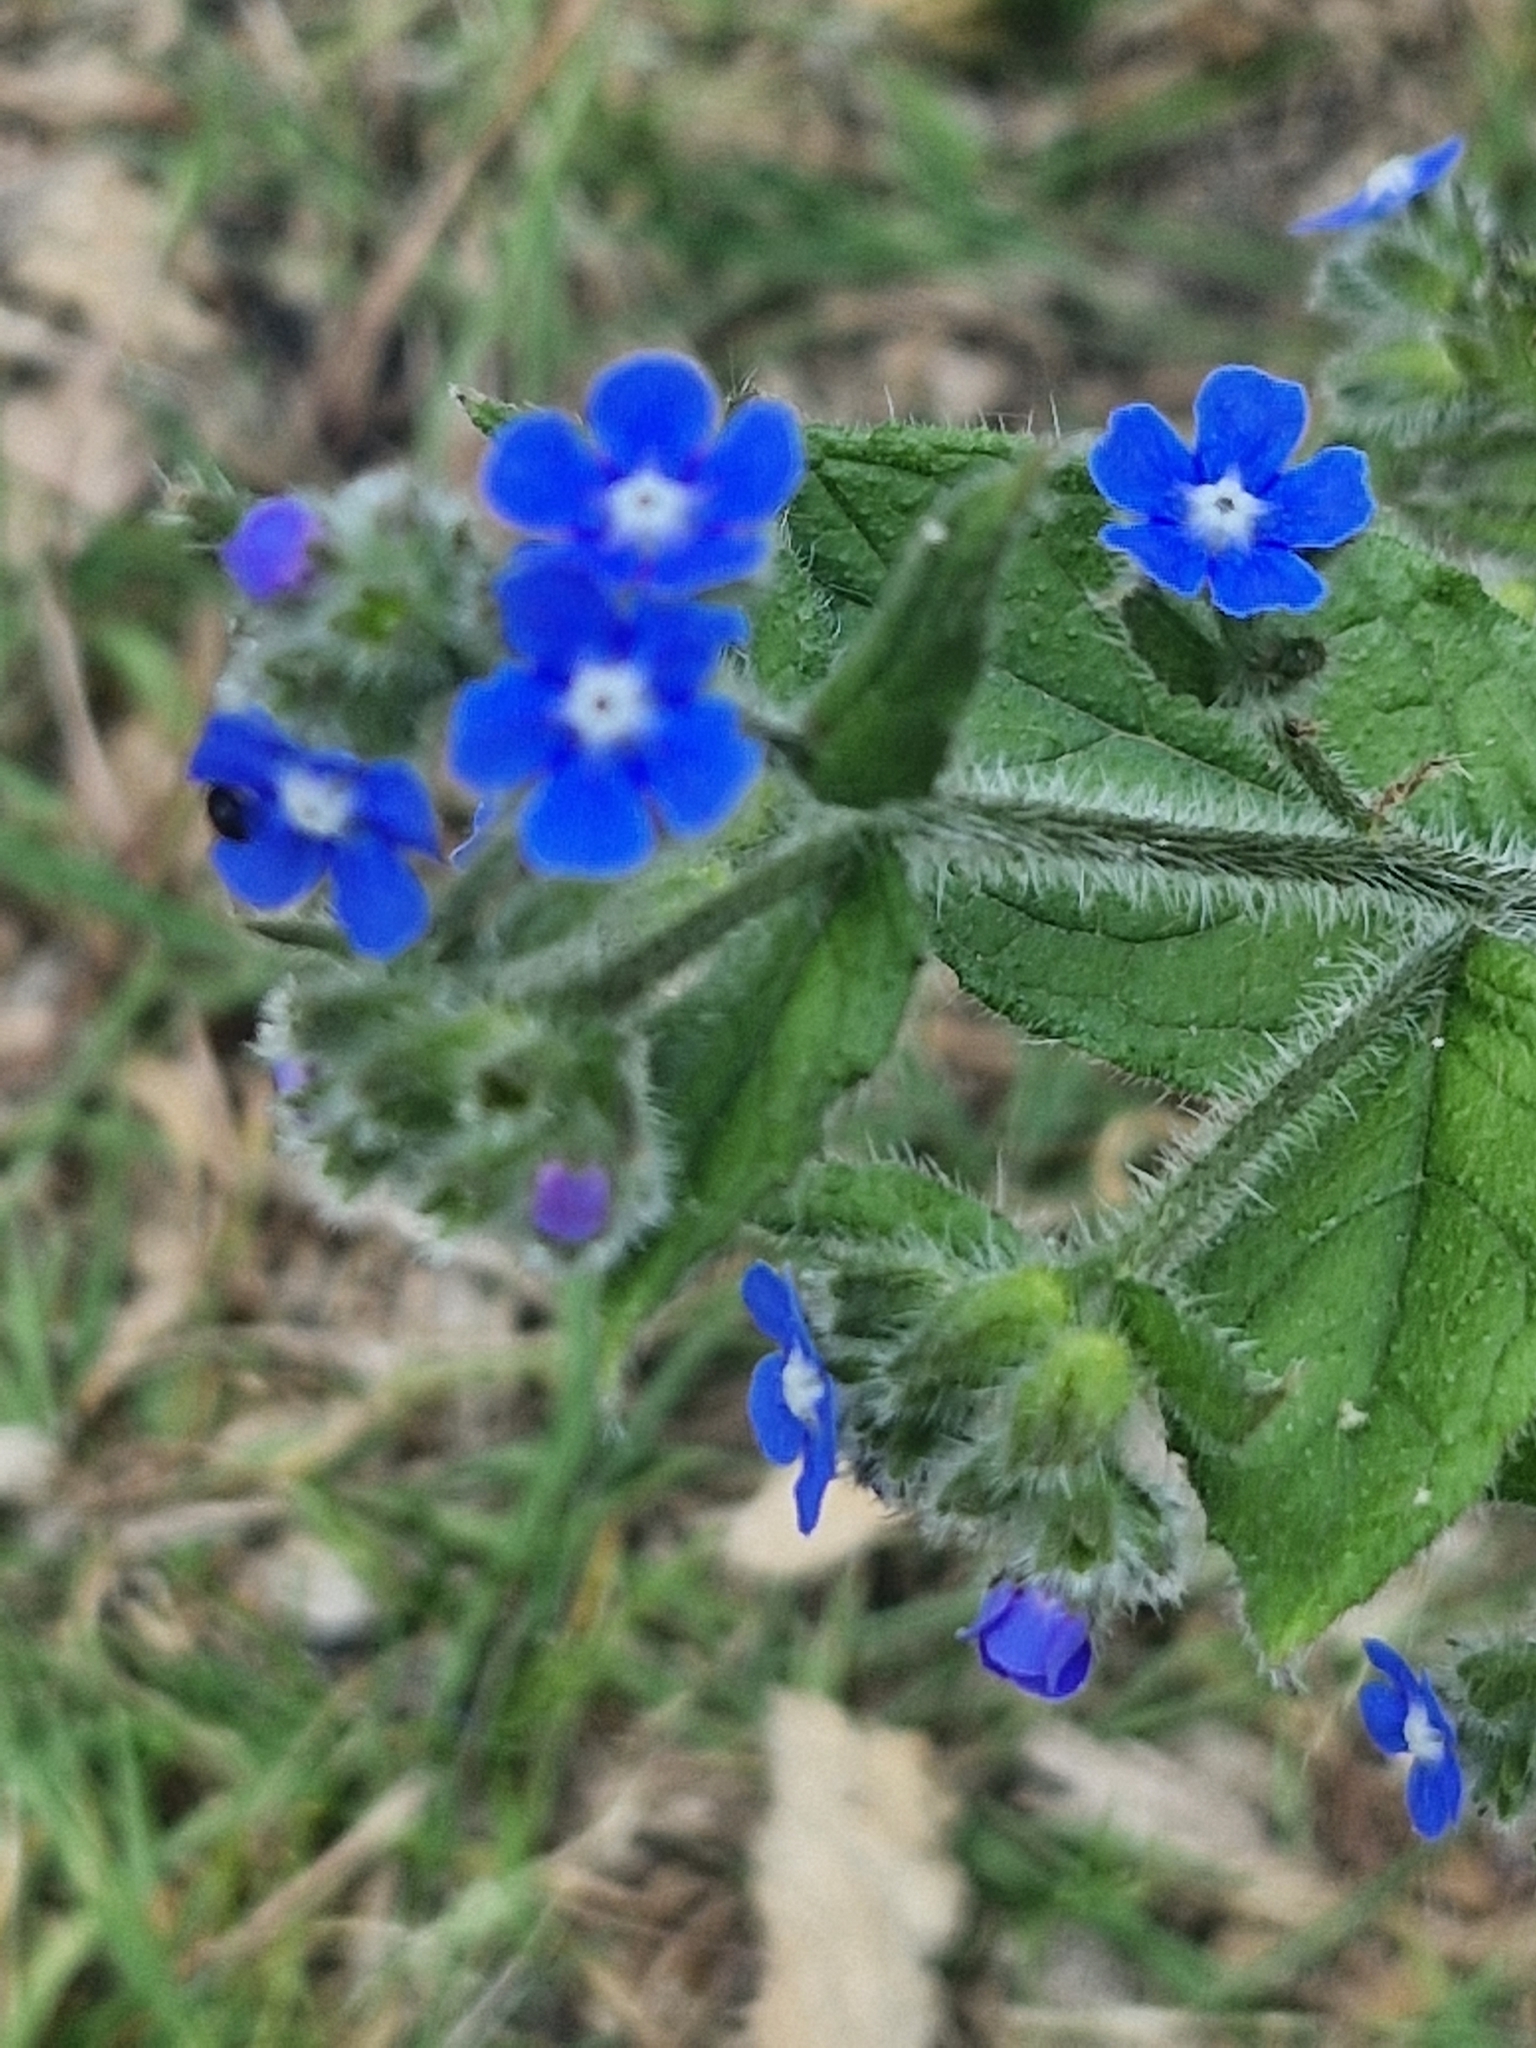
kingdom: Plantae
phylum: Tracheophyta
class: Magnoliopsida
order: Boraginales
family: Boraginaceae
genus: Pentaglottis
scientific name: Pentaglottis sempervirens
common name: Green alkanet
